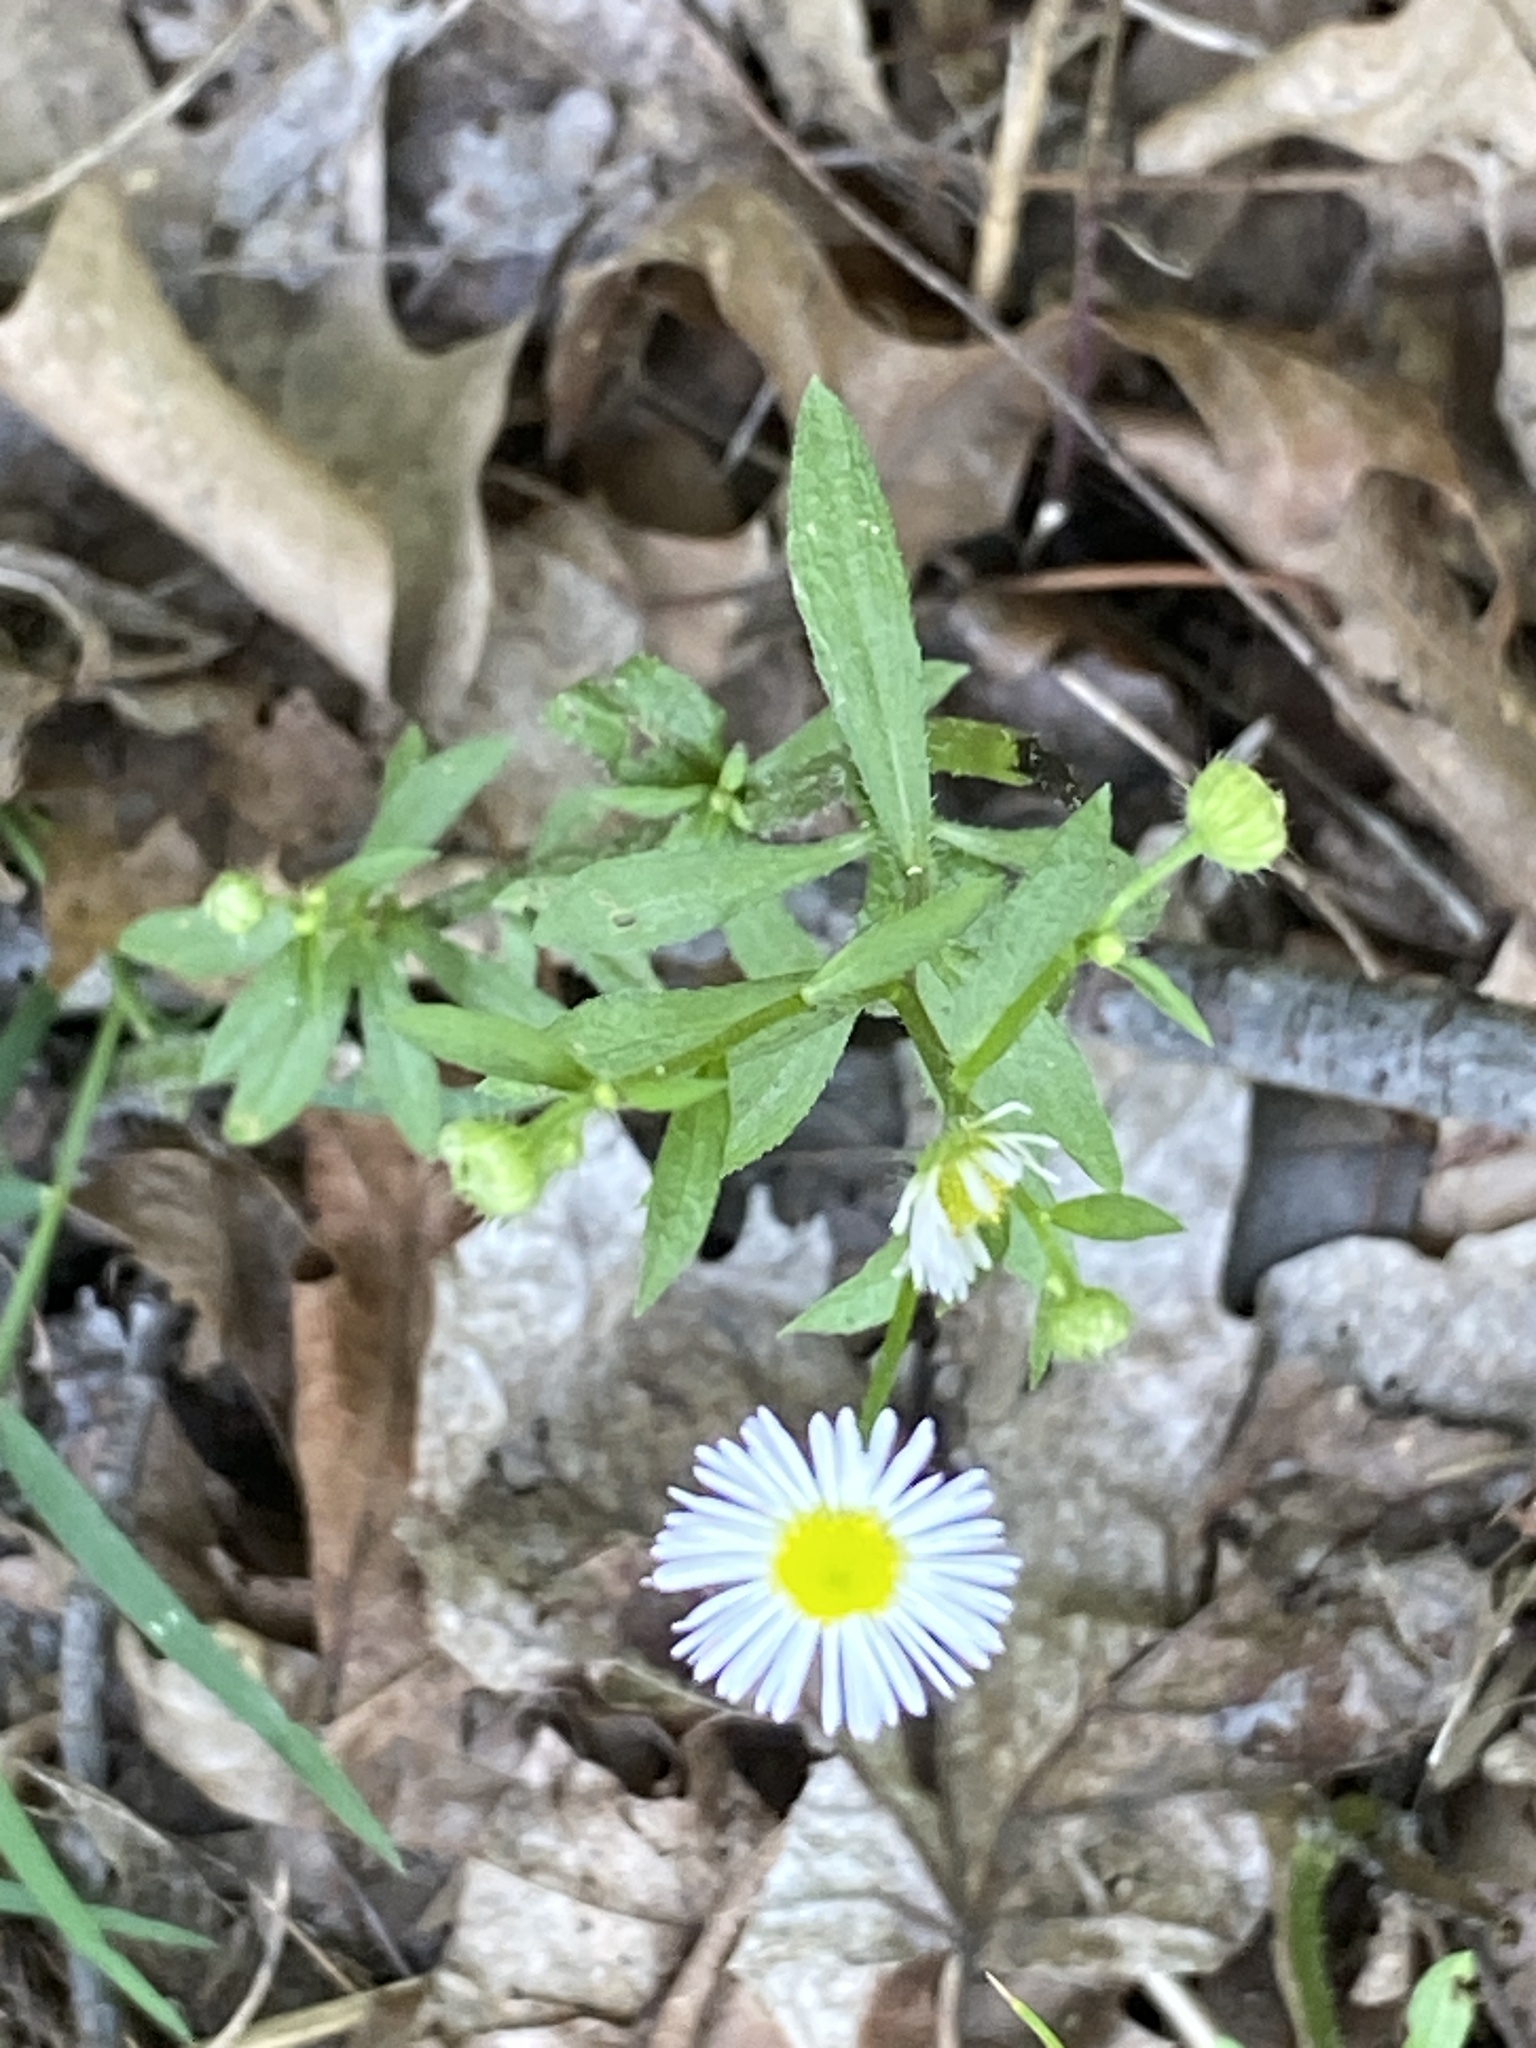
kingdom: Plantae
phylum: Tracheophyta
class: Magnoliopsida
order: Asterales
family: Asteraceae
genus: Erigeron
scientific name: Erigeron strigosus
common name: Common eastern fleabane
